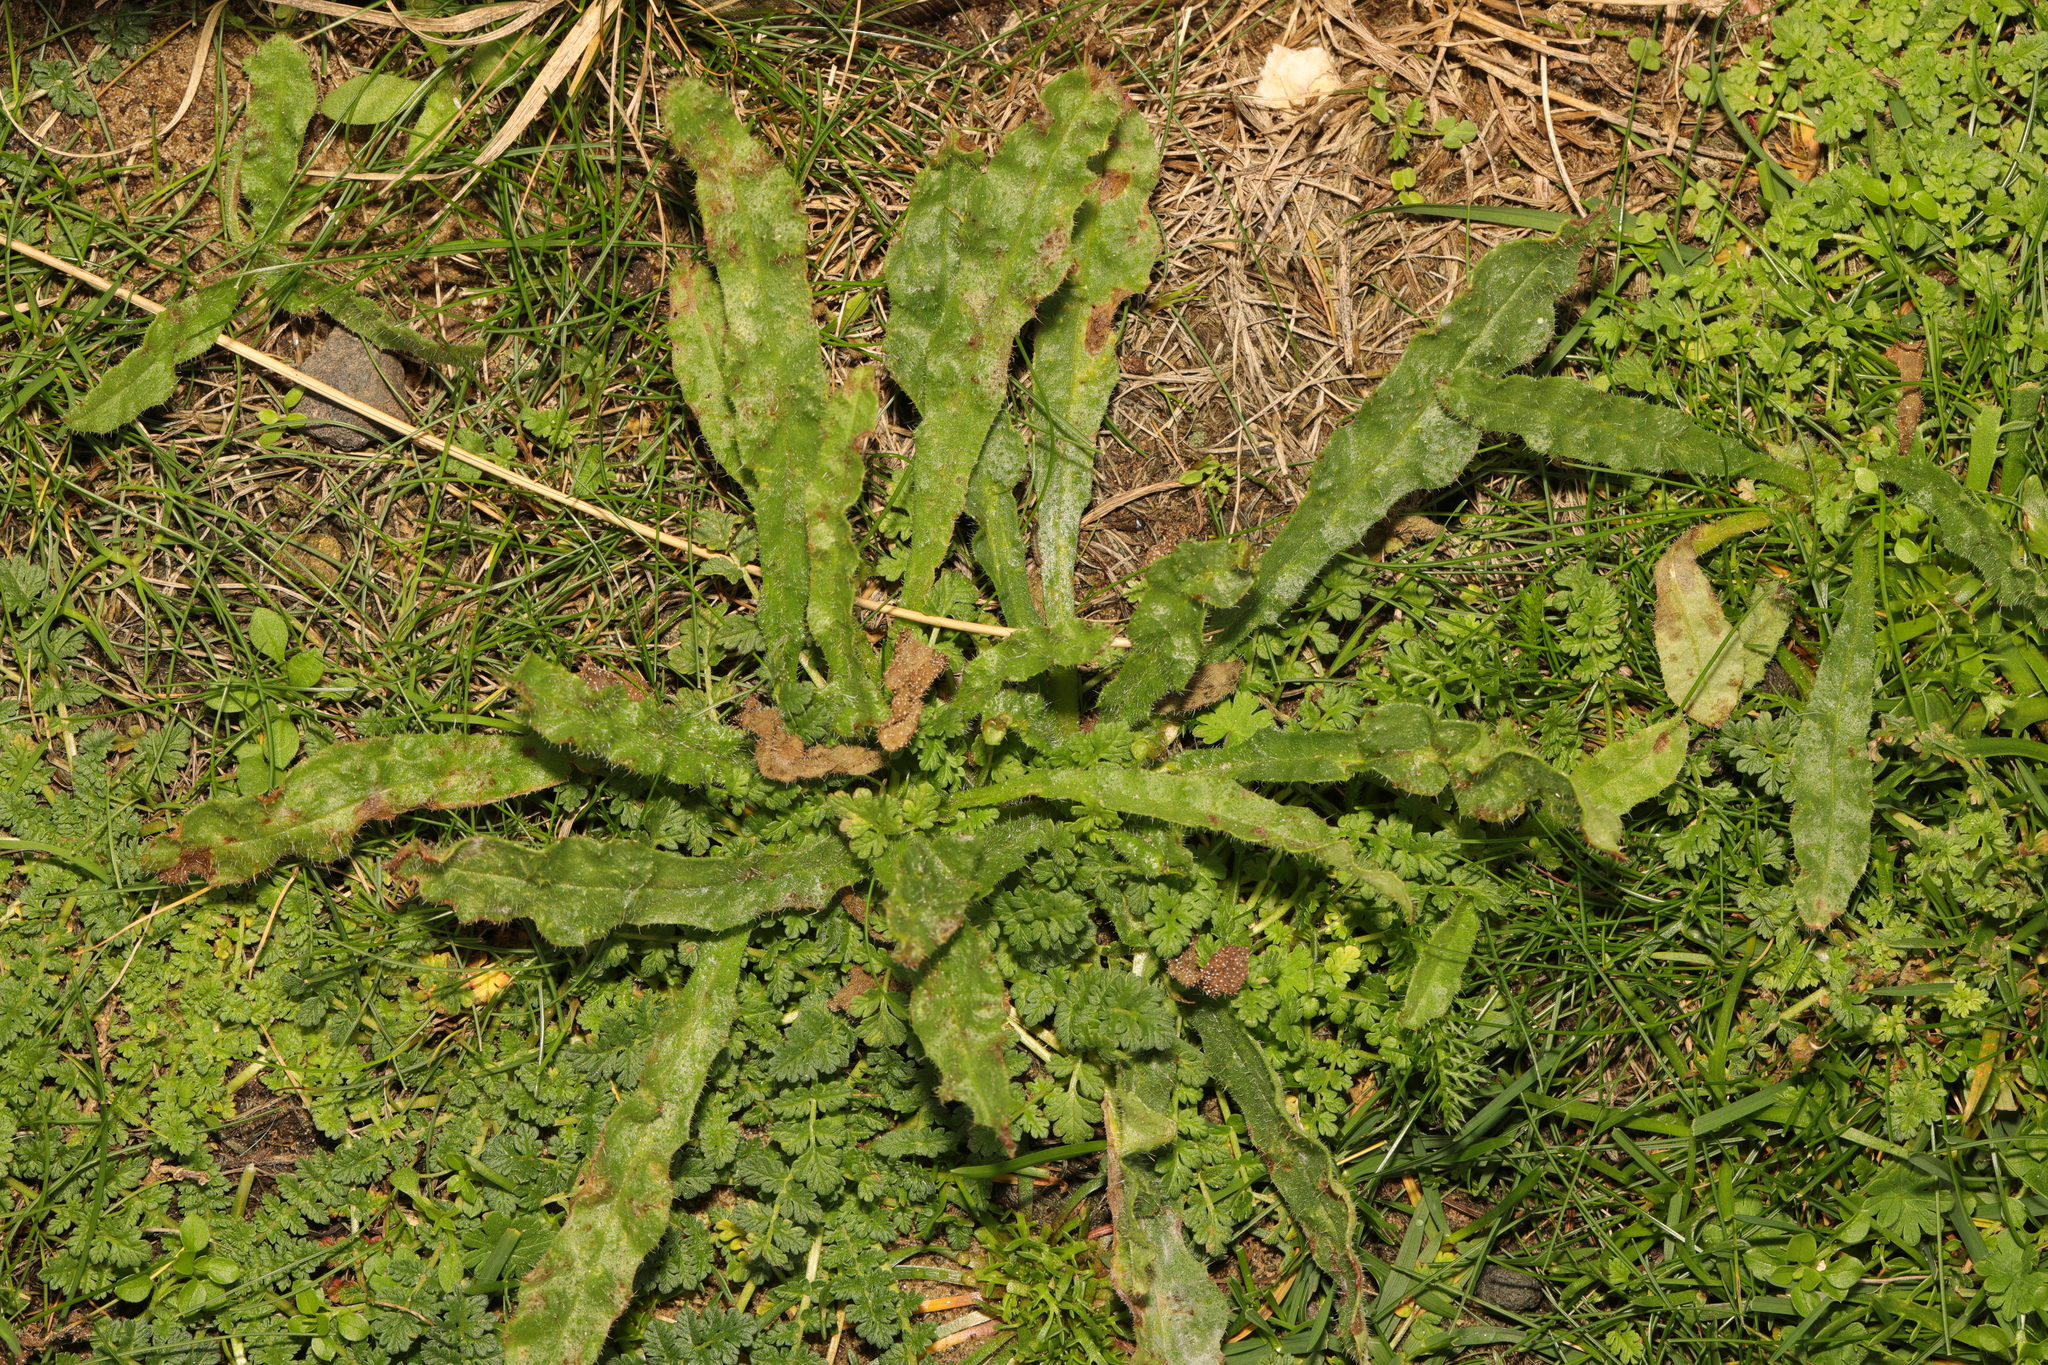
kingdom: Plantae
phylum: Tracheophyta
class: Magnoliopsida
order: Asterales
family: Asteraceae
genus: Helminthotheca
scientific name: Helminthotheca echioides
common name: Ox-tongue
